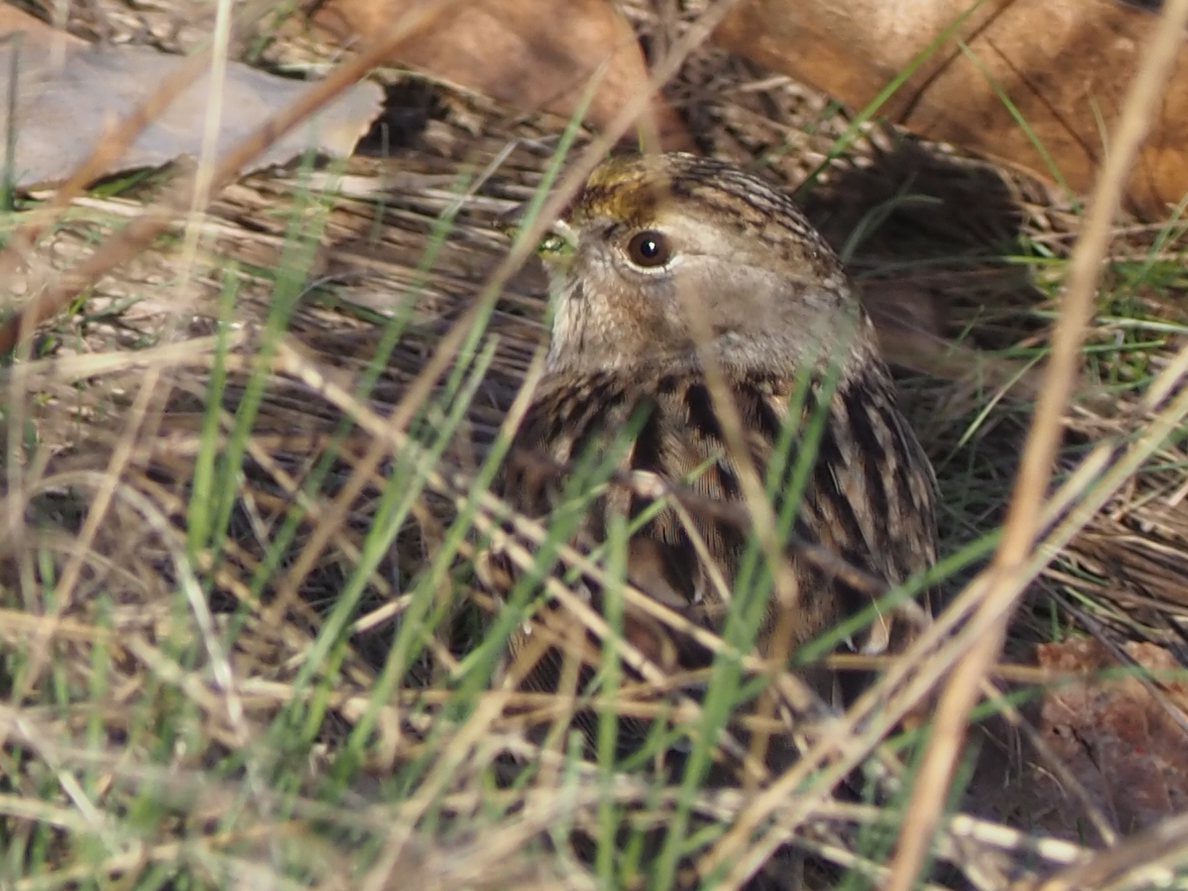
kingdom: Animalia
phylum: Chordata
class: Aves
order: Passeriformes
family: Passerellidae
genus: Zonotrichia
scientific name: Zonotrichia atricapilla
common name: Golden-crowned sparrow
